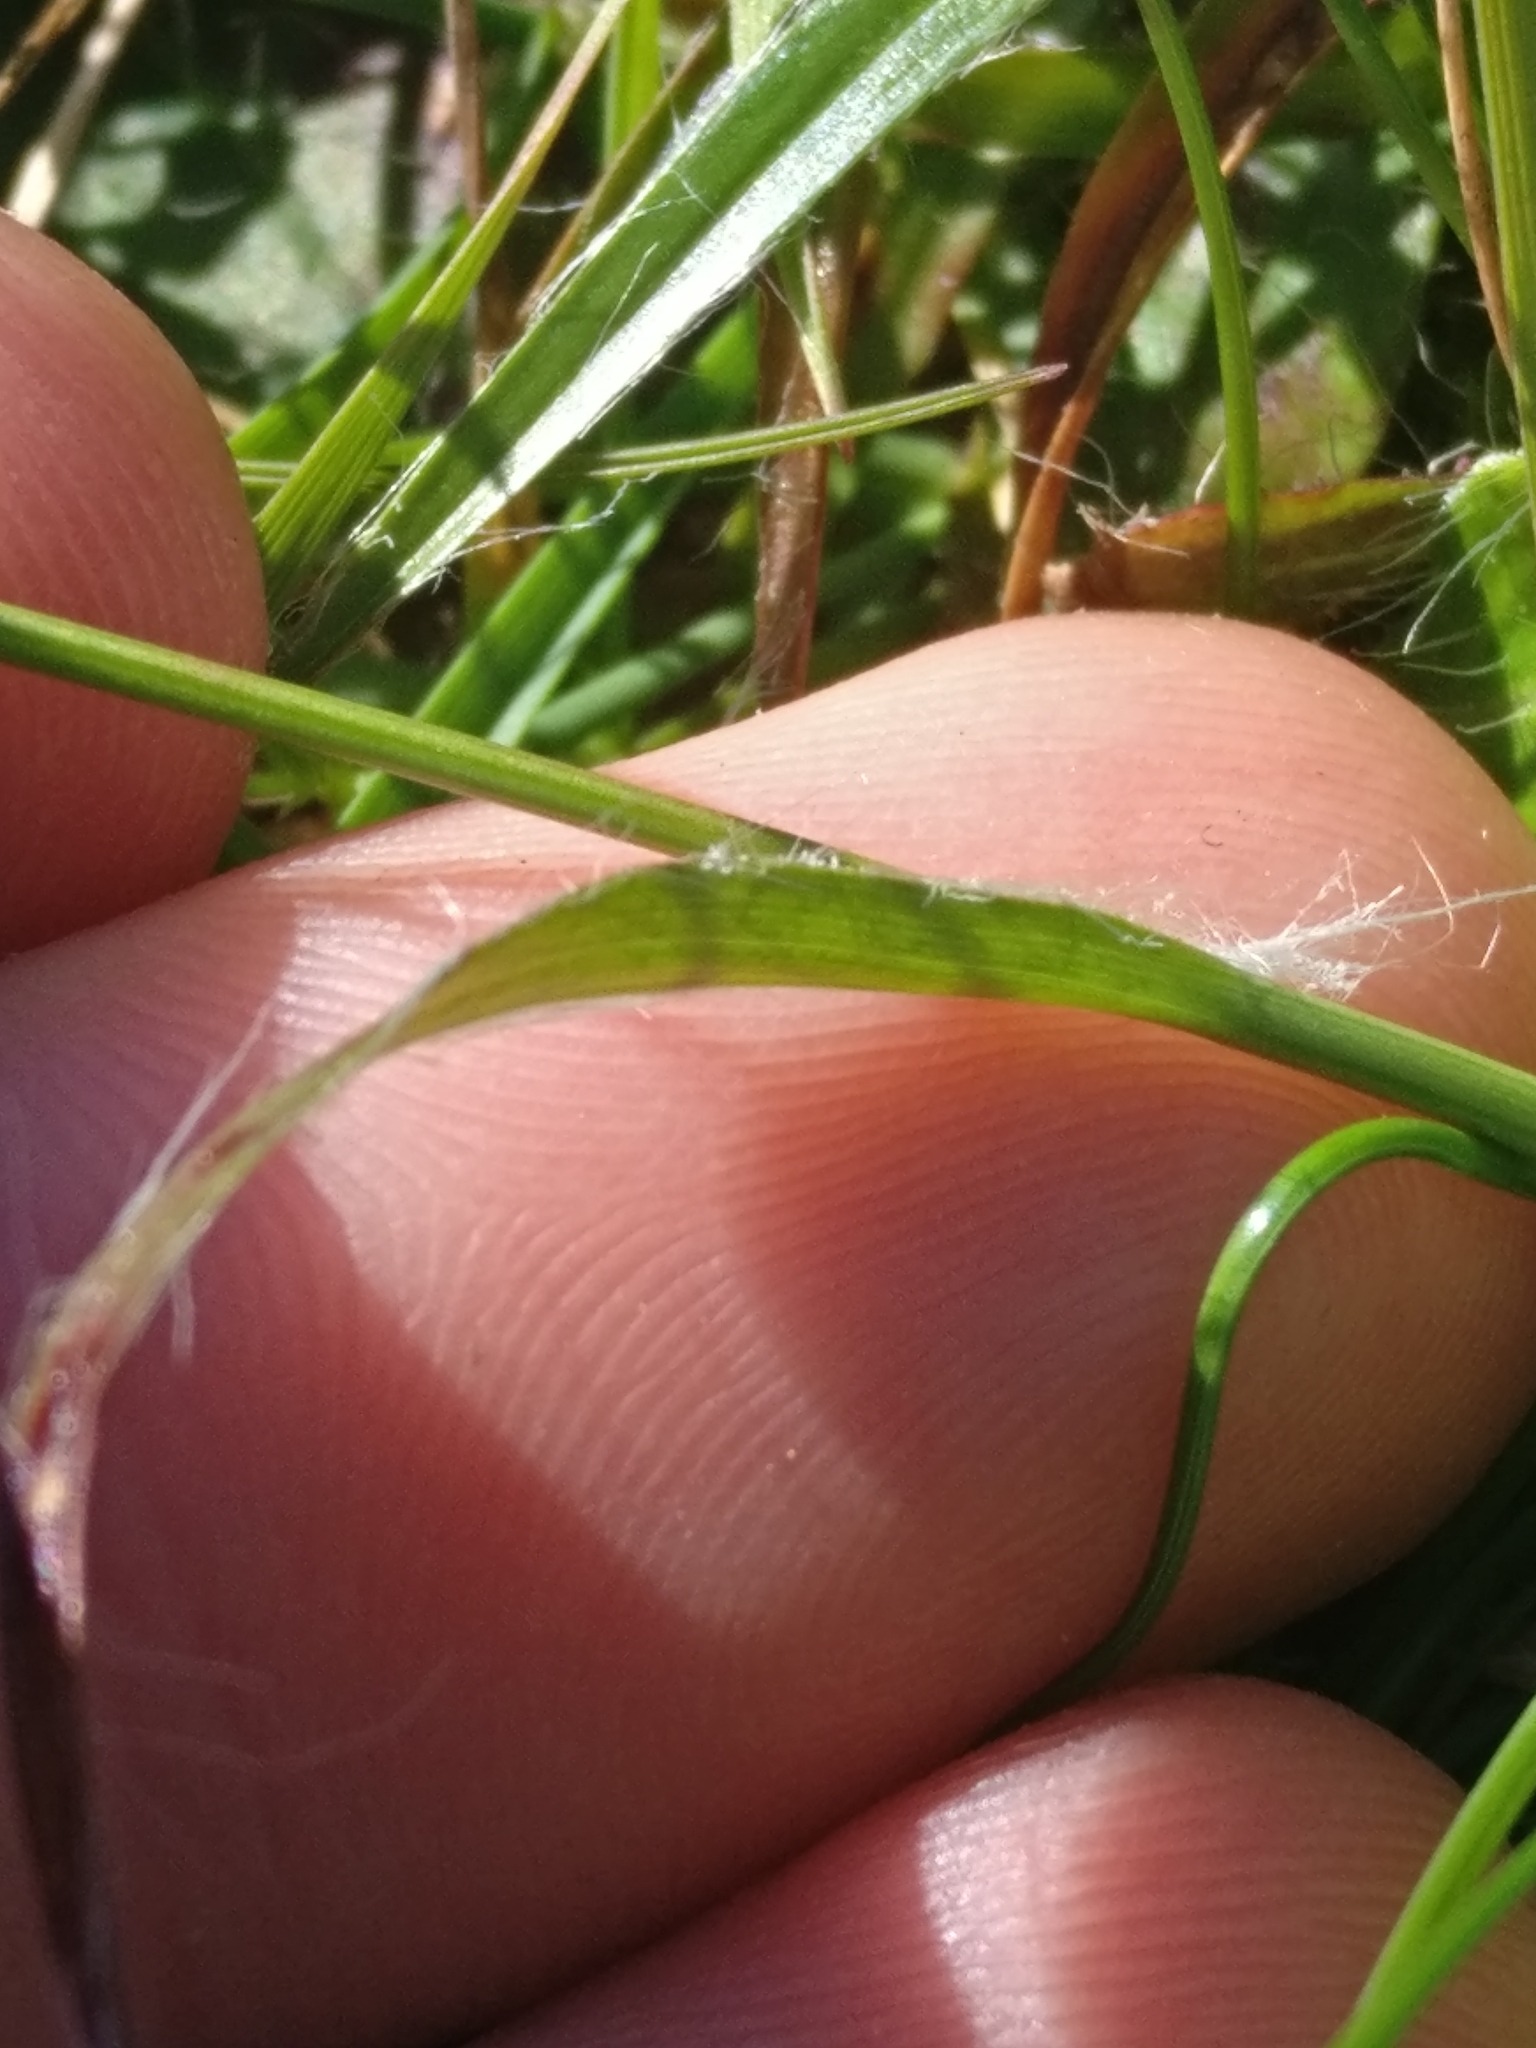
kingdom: Plantae
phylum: Tracheophyta
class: Liliopsida
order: Poales
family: Juncaceae
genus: Luzula
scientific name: Luzula campestris
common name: Field wood-rush
